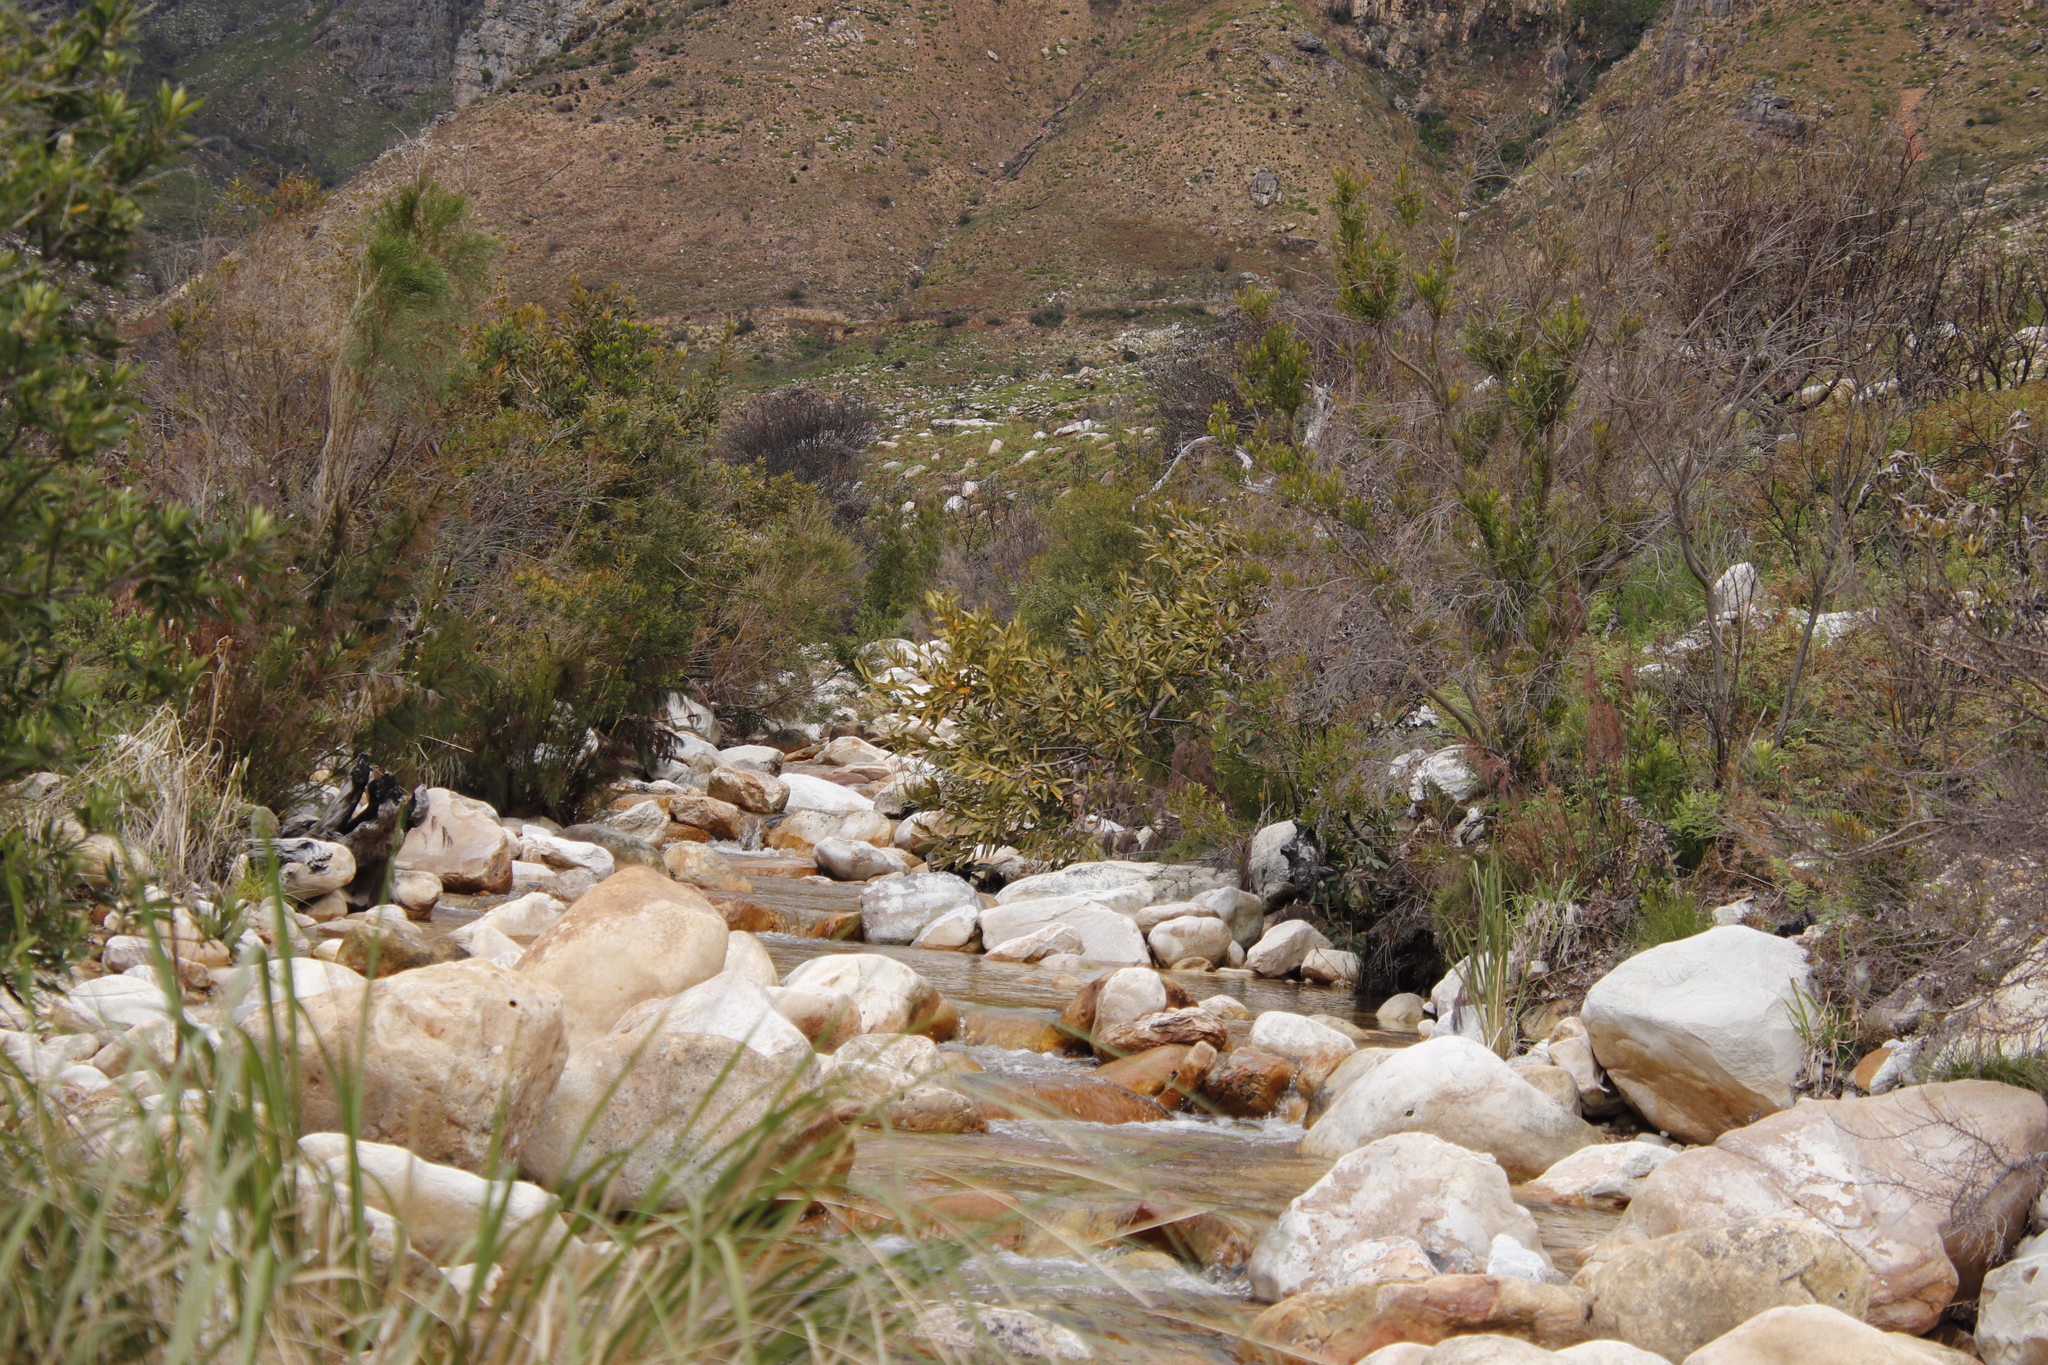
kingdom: Plantae
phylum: Tracheophyta
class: Magnoliopsida
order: Proteales
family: Proteaceae
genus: Brabejum
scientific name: Brabejum stellatifolium
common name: Wild almond
